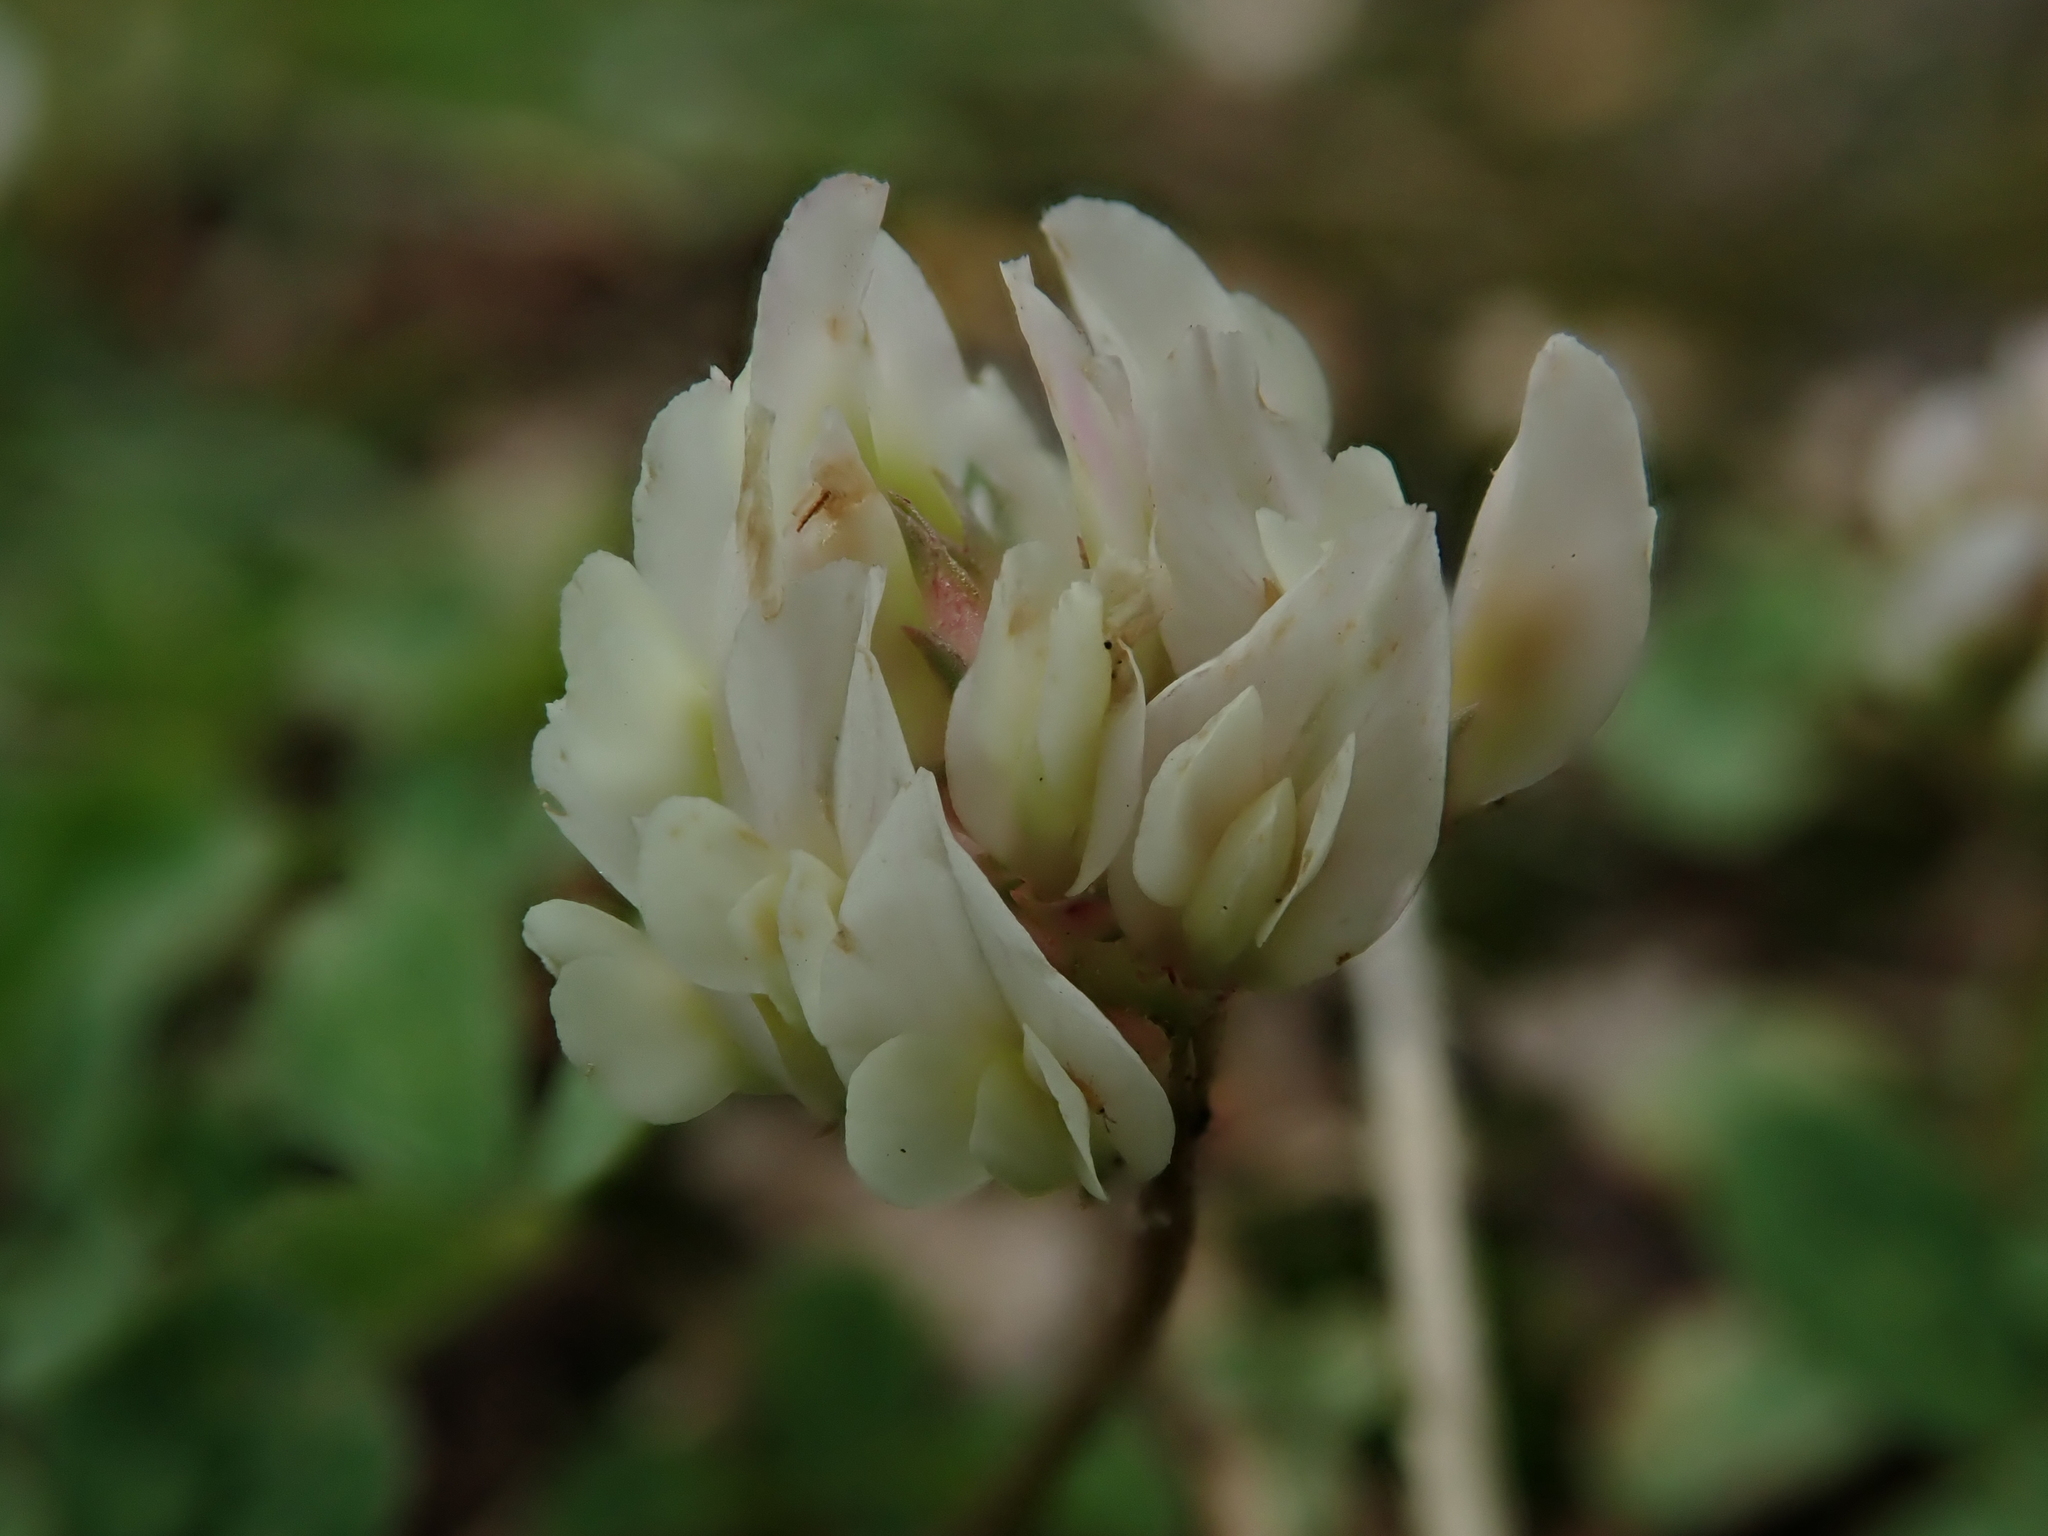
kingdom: Plantae
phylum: Tracheophyta
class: Magnoliopsida
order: Fabales
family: Fabaceae
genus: Trifolium
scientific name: Trifolium repens
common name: White clover
